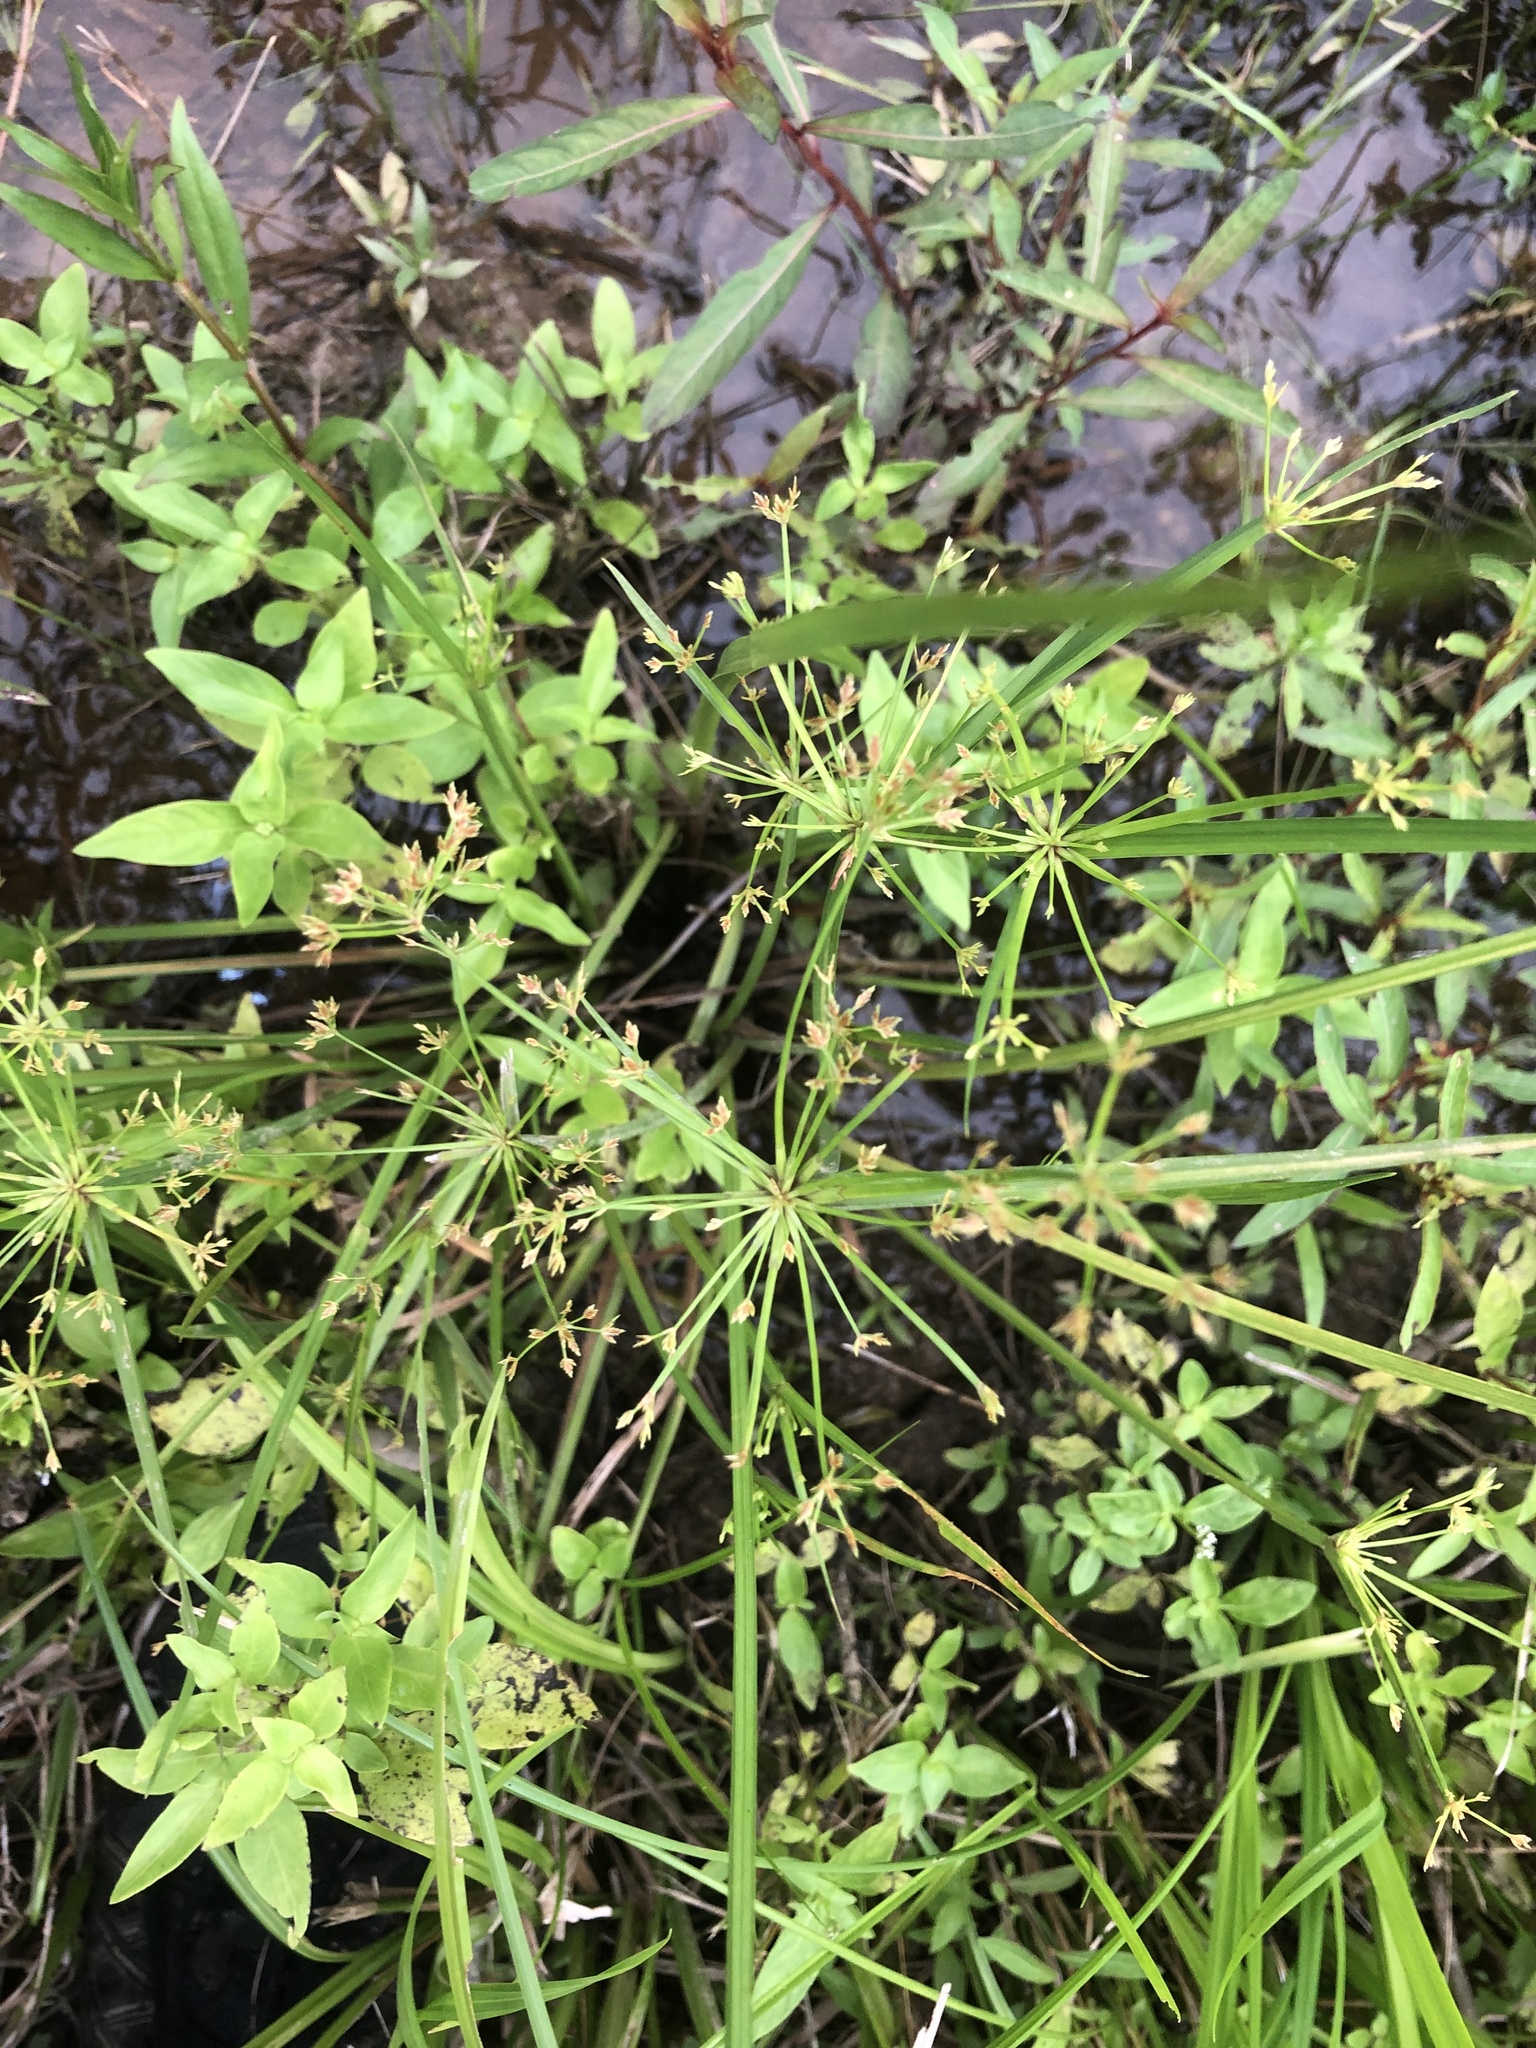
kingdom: Plantae
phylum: Tracheophyta
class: Liliopsida
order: Poales
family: Cyperaceae
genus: Cyperus
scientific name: Cyperus haspan
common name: Haspan flatsedge
